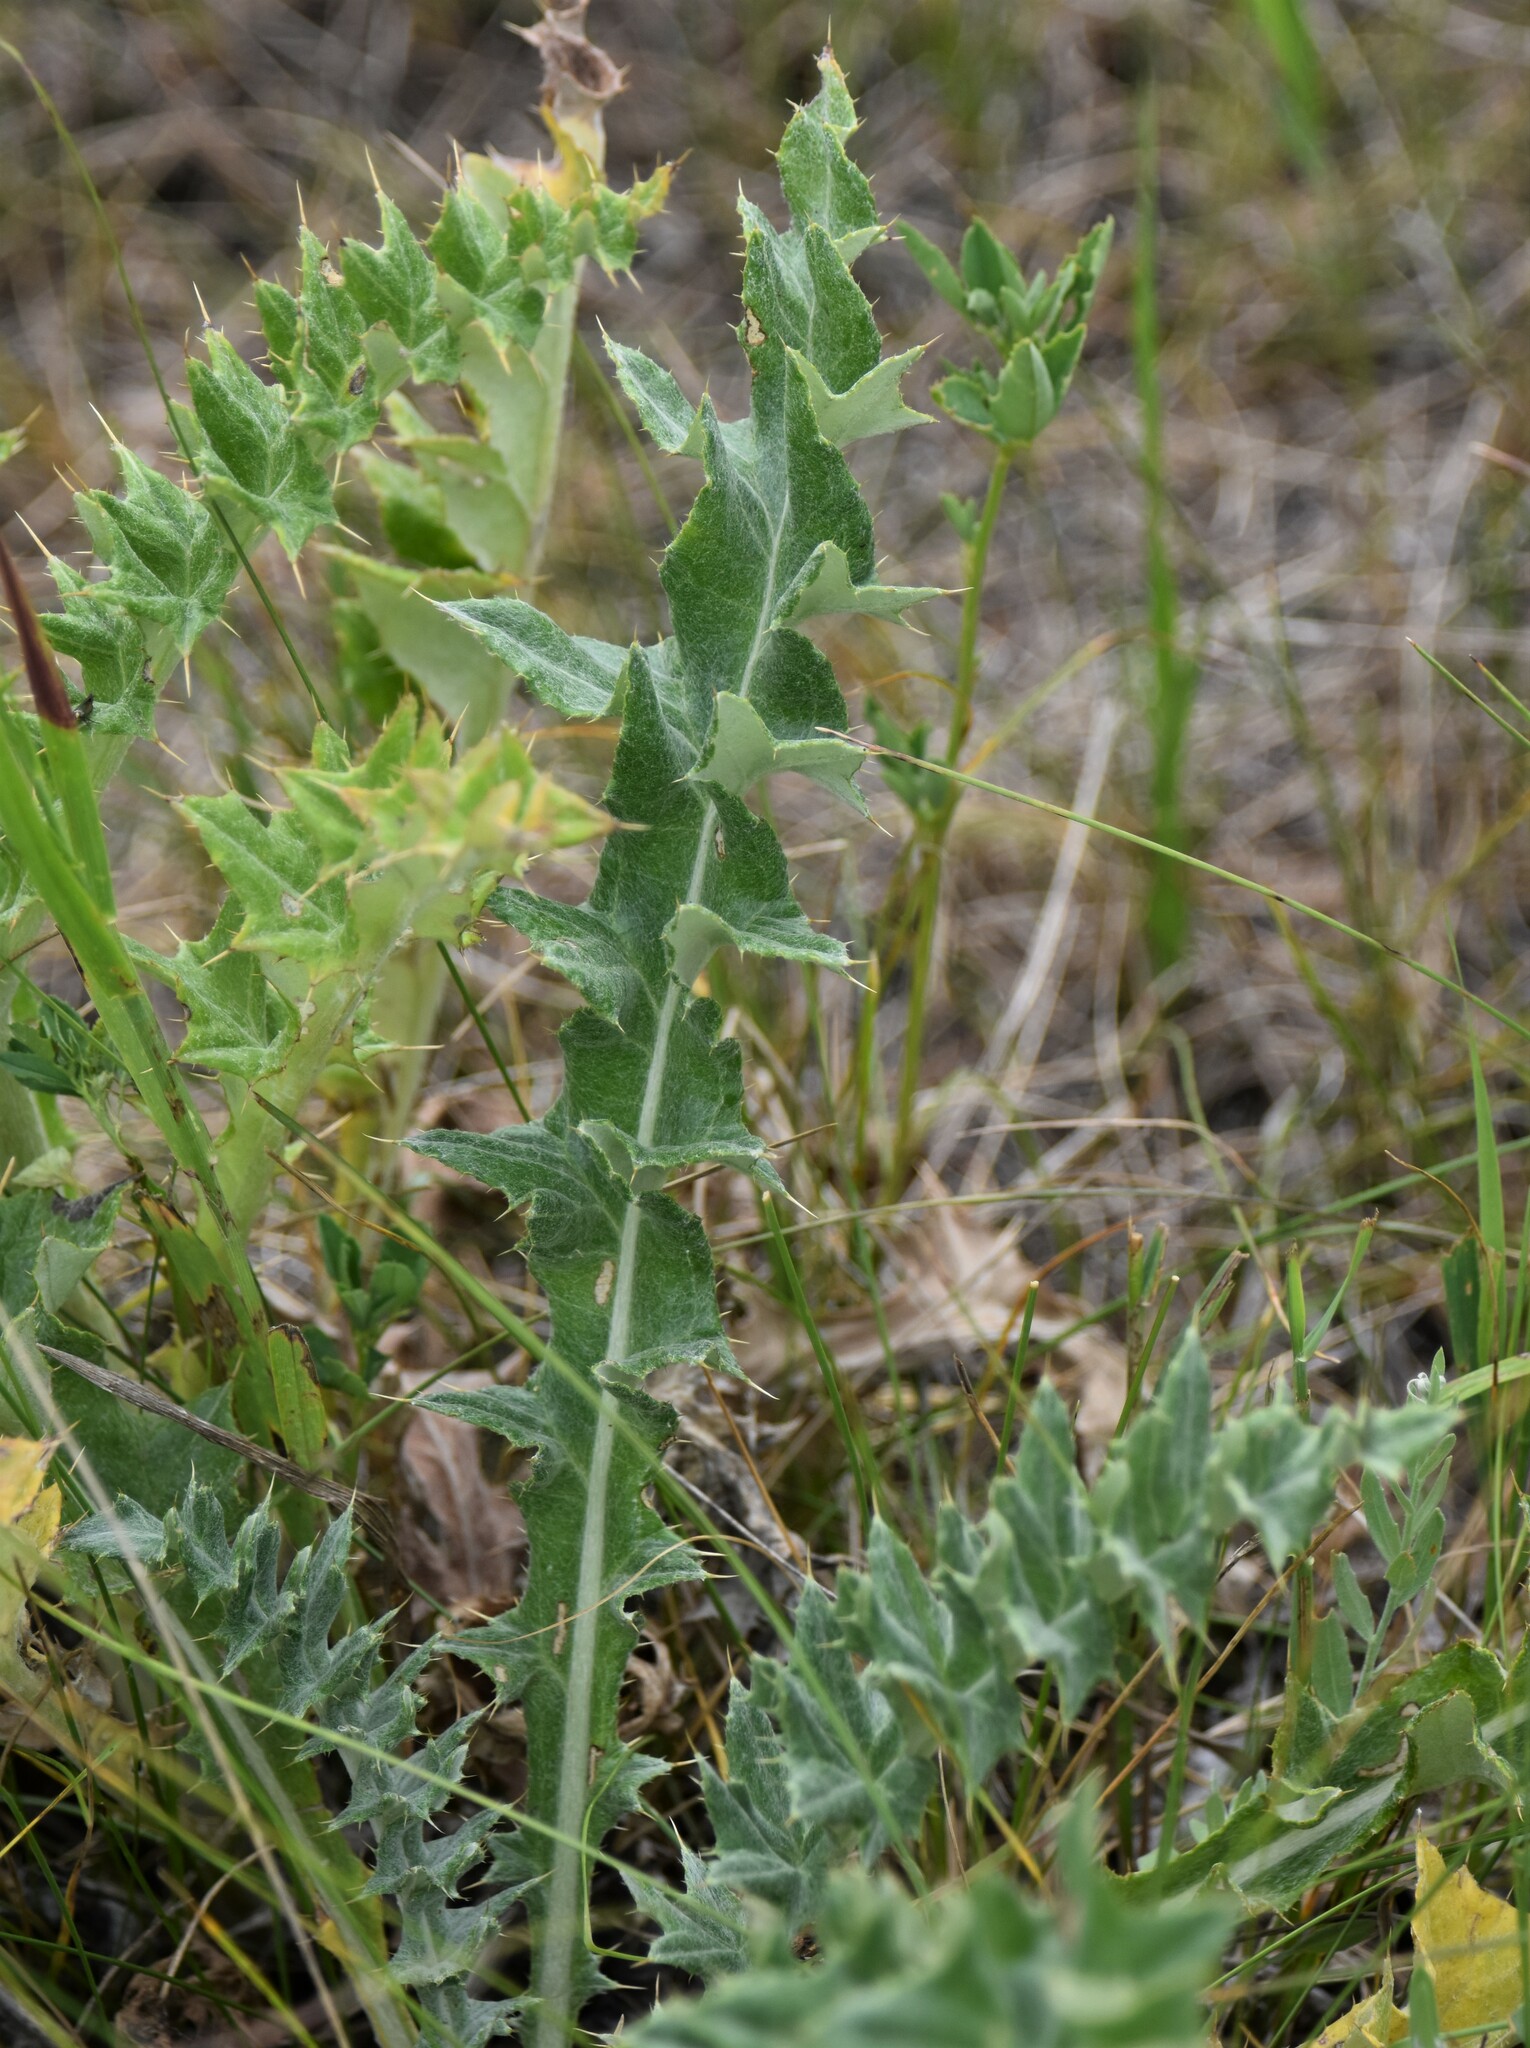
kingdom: Plantae
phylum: Tracheophyta
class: Magnoliopsida
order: Asterales
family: Asteraceae
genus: Cirsium
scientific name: Cirsium undulatum
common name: Pasture thistle
